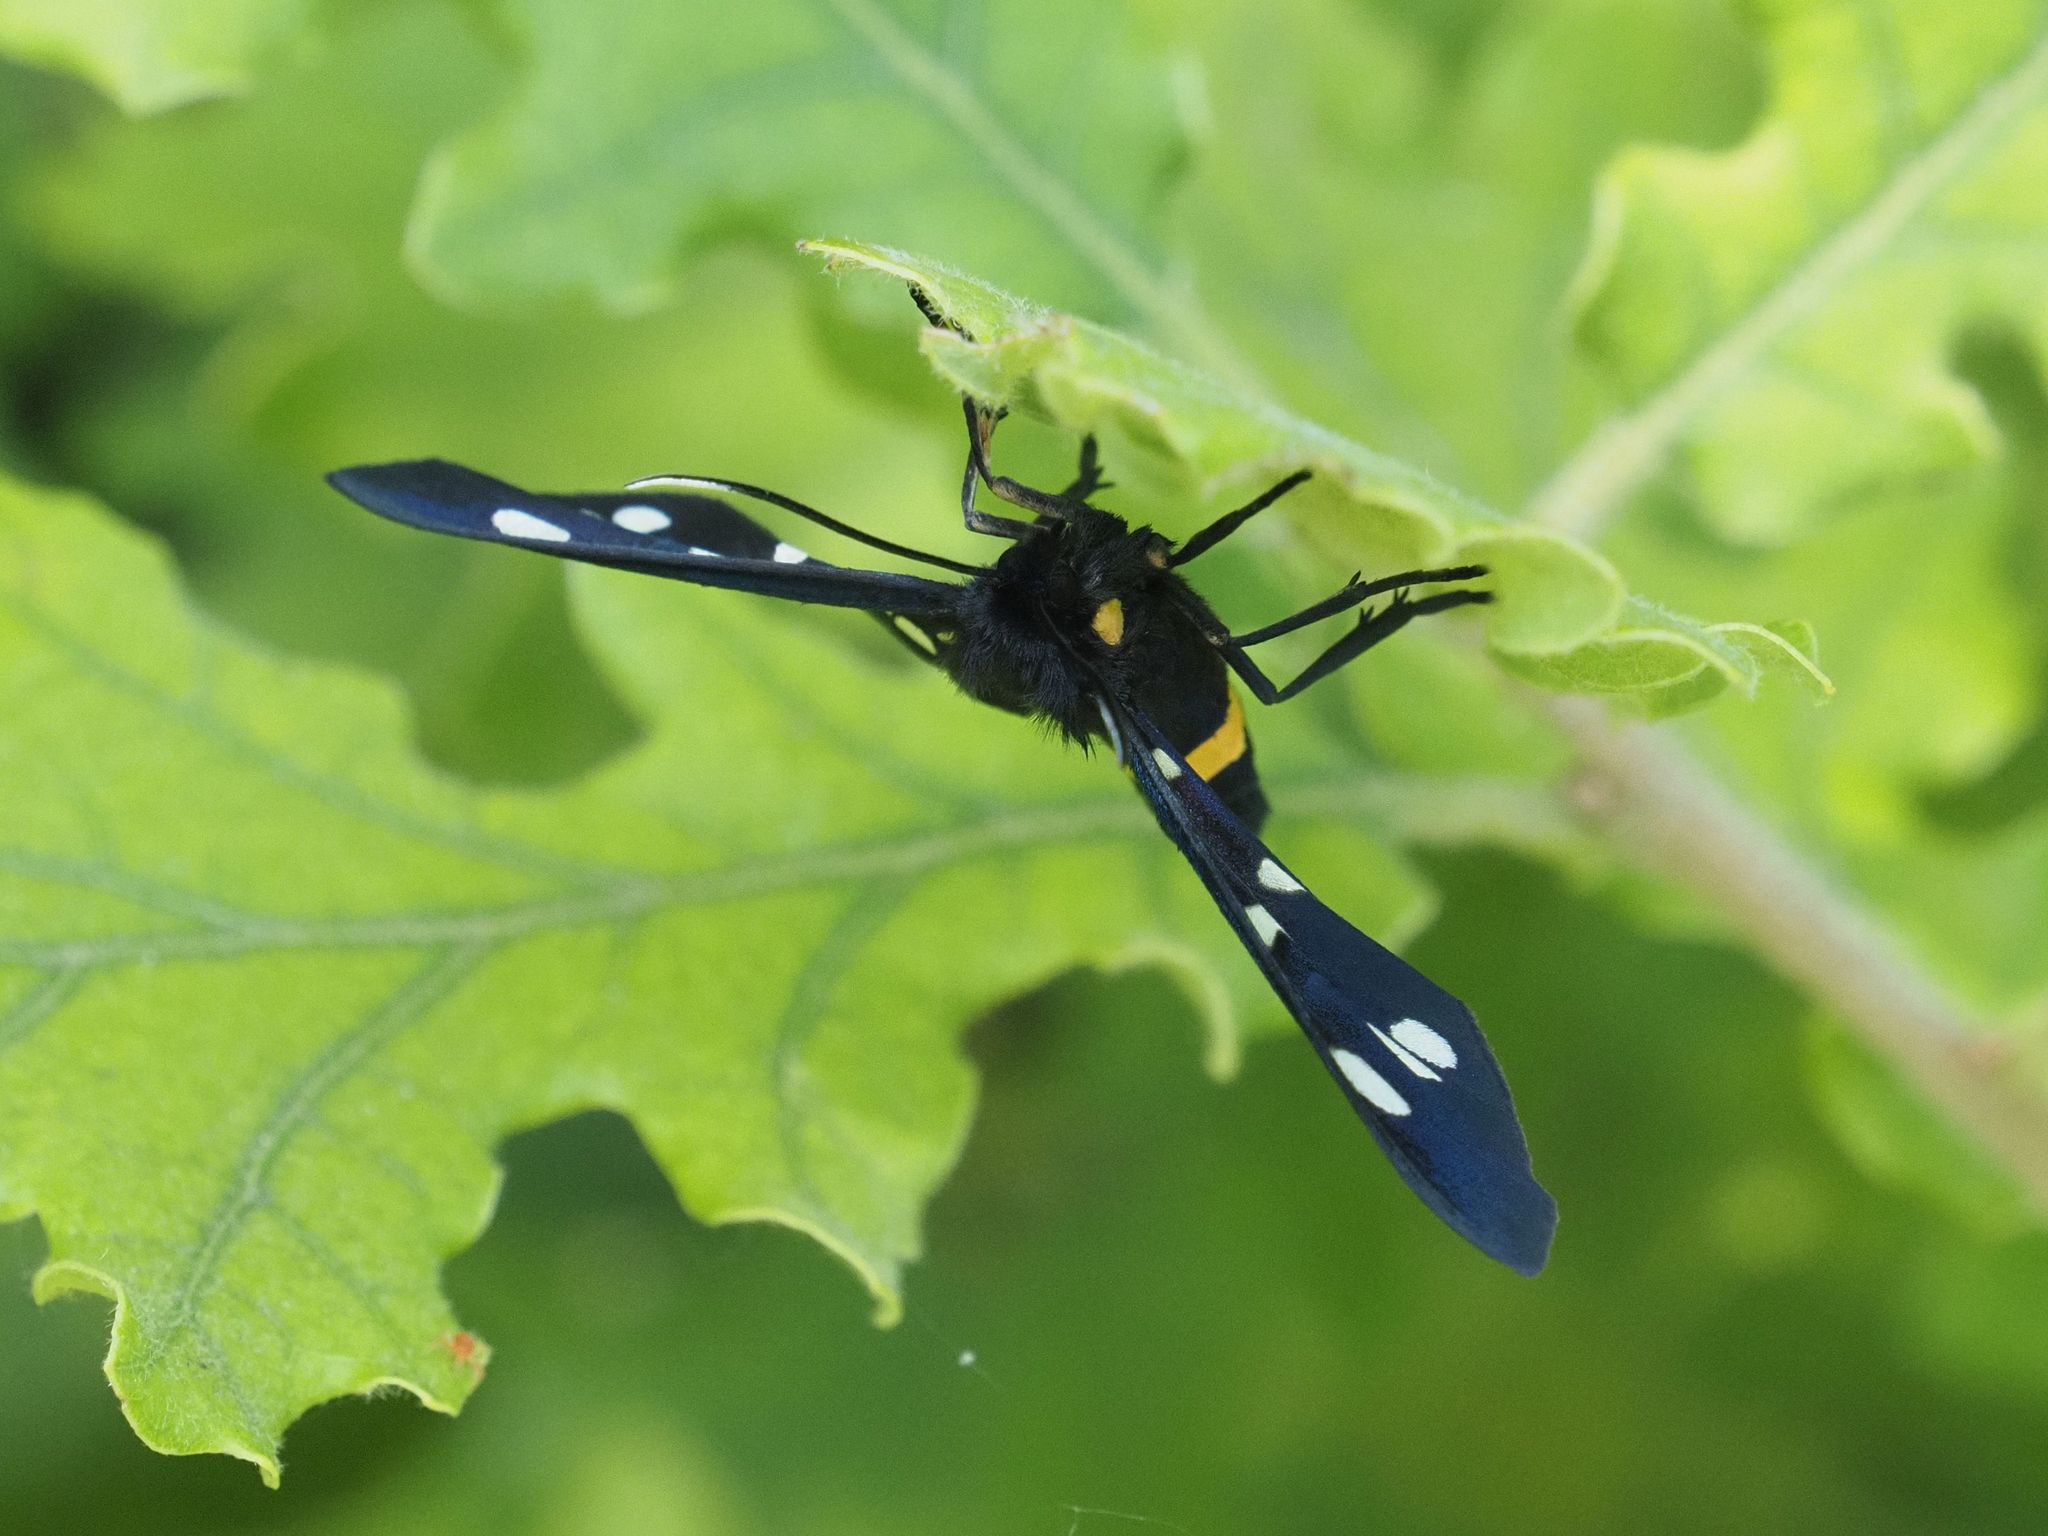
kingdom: Animalia
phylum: Arthropoda
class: Insecta
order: Lepidoptera
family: Erebidae
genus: Amata
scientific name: Amata phegea
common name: Nine-spotted
